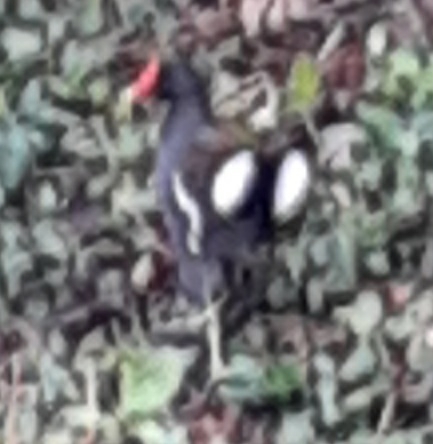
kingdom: Animalia
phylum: Chordata
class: Aves
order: Gruiformes
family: Rallidae
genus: Gallinula
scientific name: Gallinula chloropus
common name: Common moorhen
